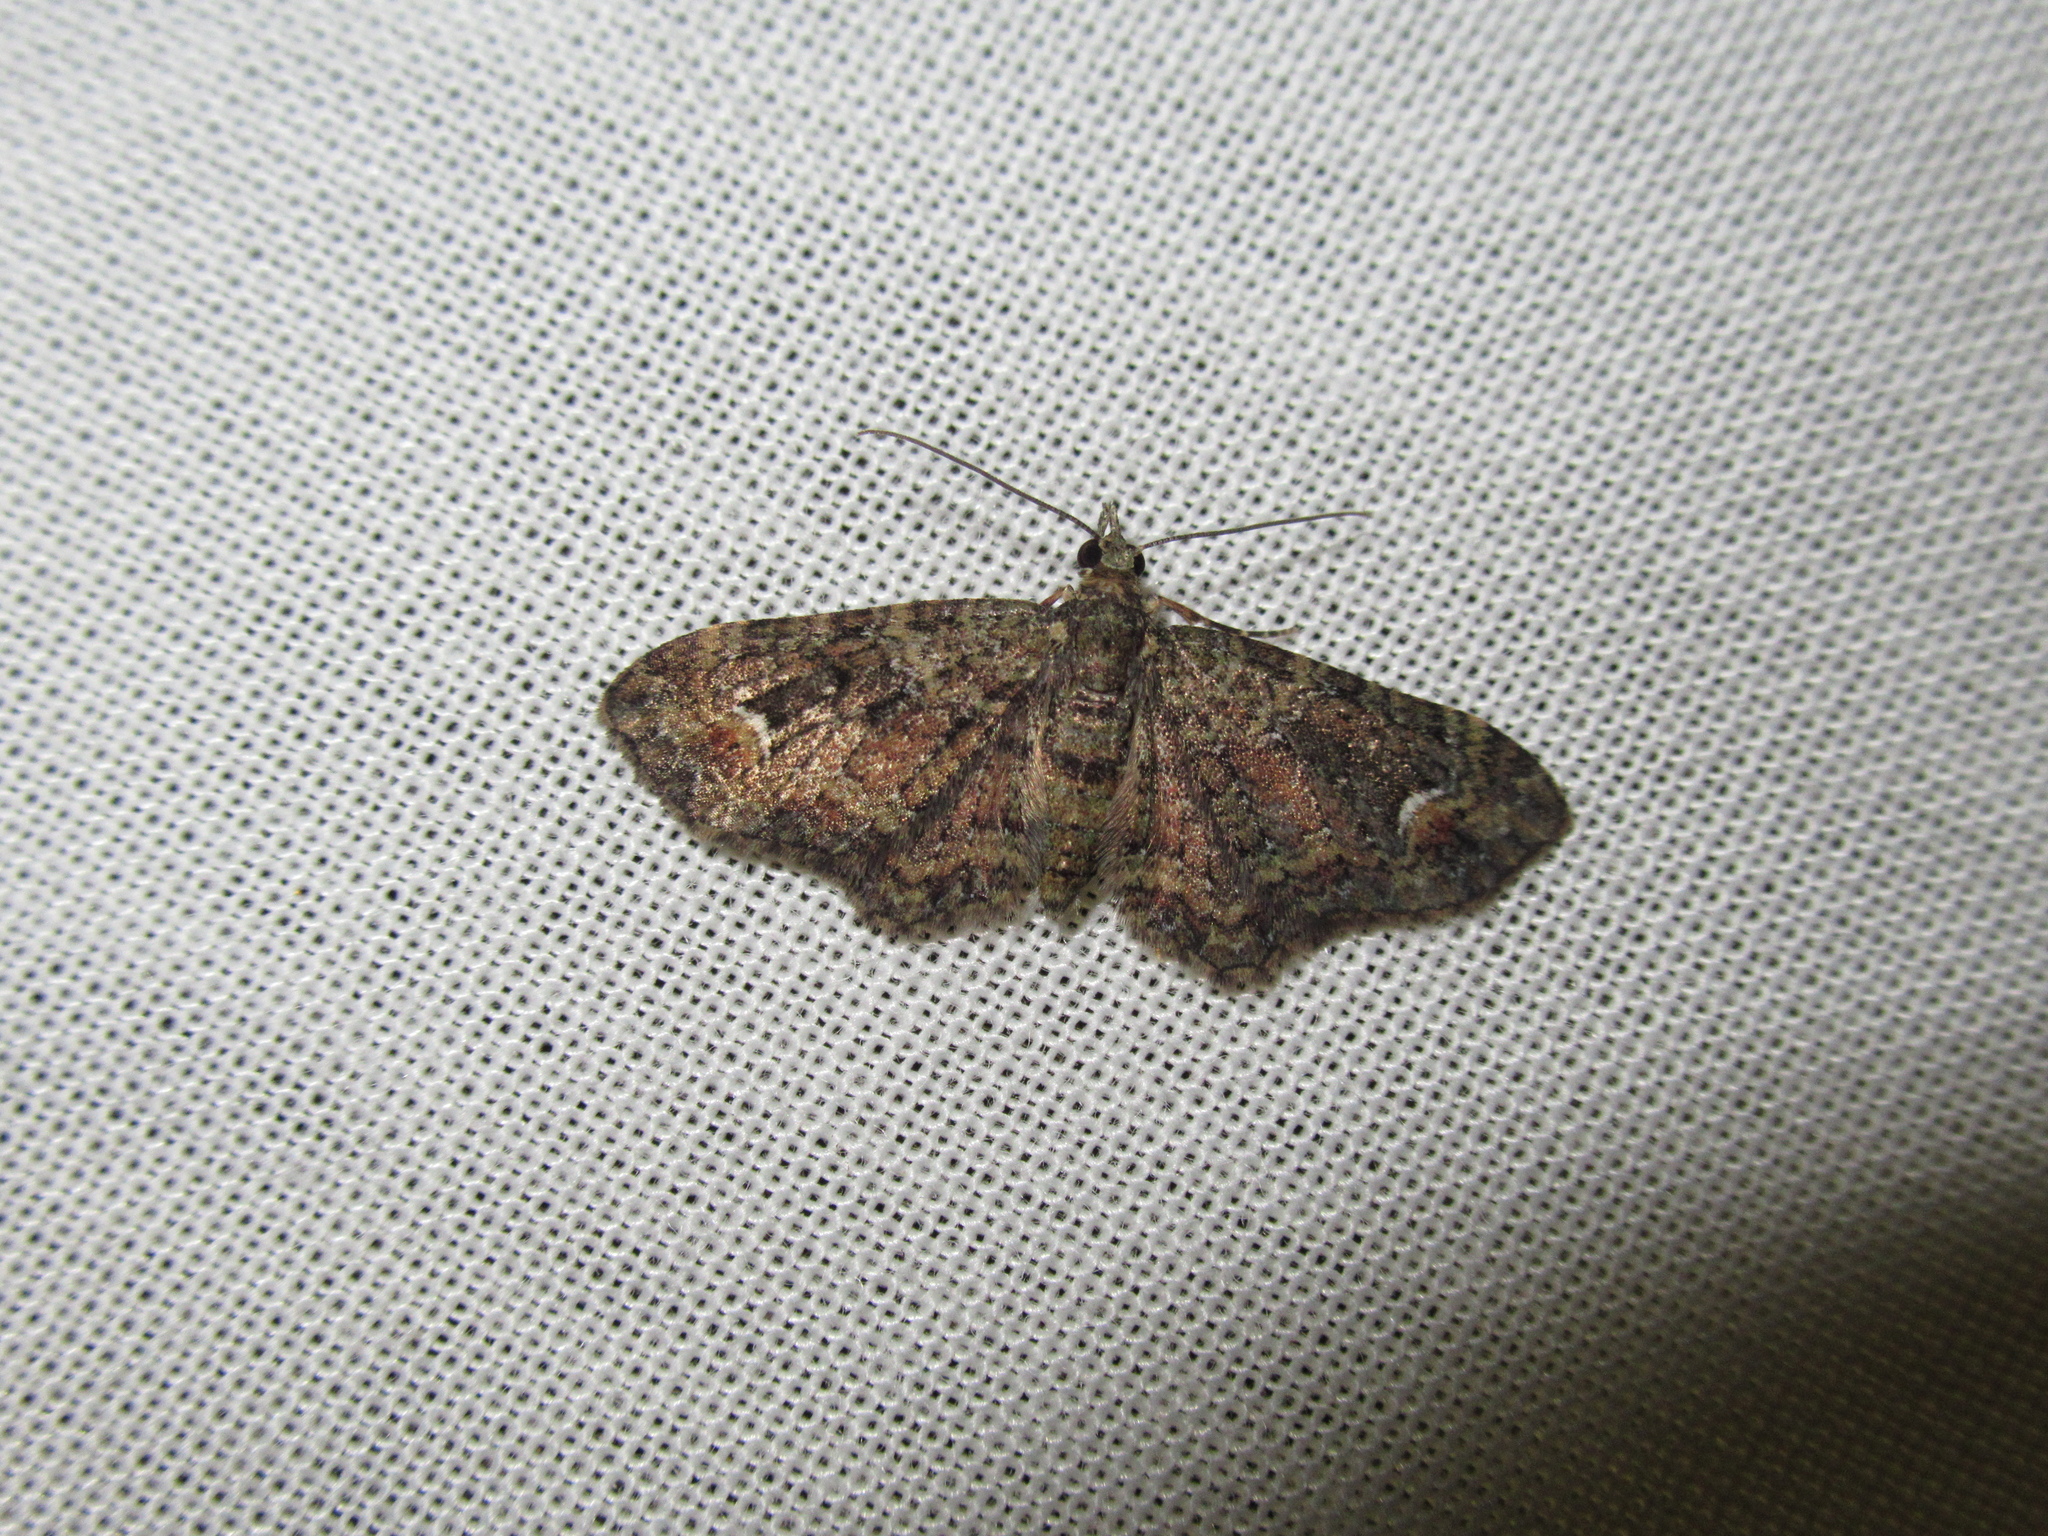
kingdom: Animalia
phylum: Arthropoda
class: Insecta
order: Lepidoptera
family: Geometridae
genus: Pasiphilodes
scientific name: Pasiphilodes testulata
